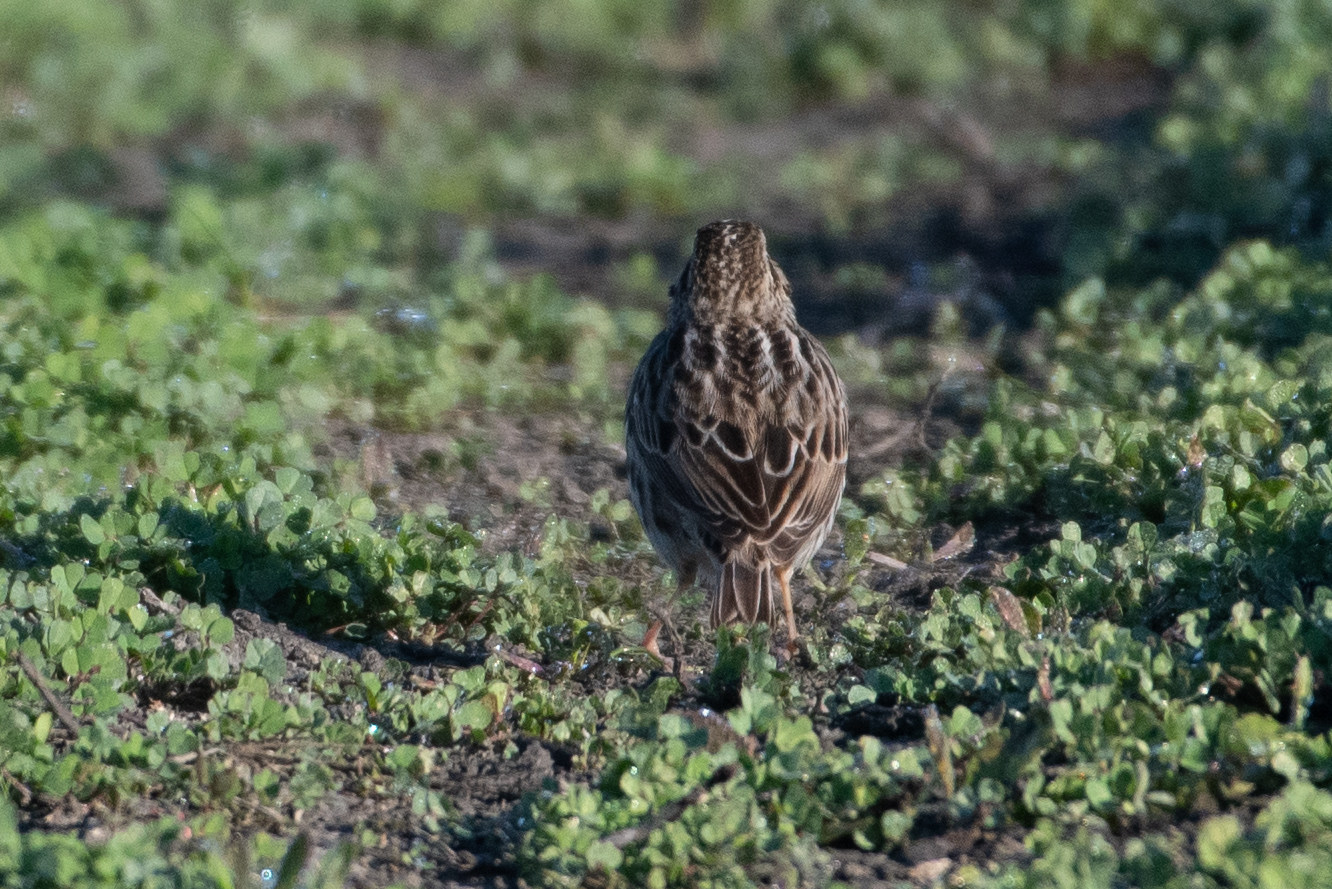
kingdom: Animalia
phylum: Chordata
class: Aves
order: Passeriformes
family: Passerellidae
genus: Passerculus
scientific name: Passerculus sandwichensis
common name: Savannah sparrow
